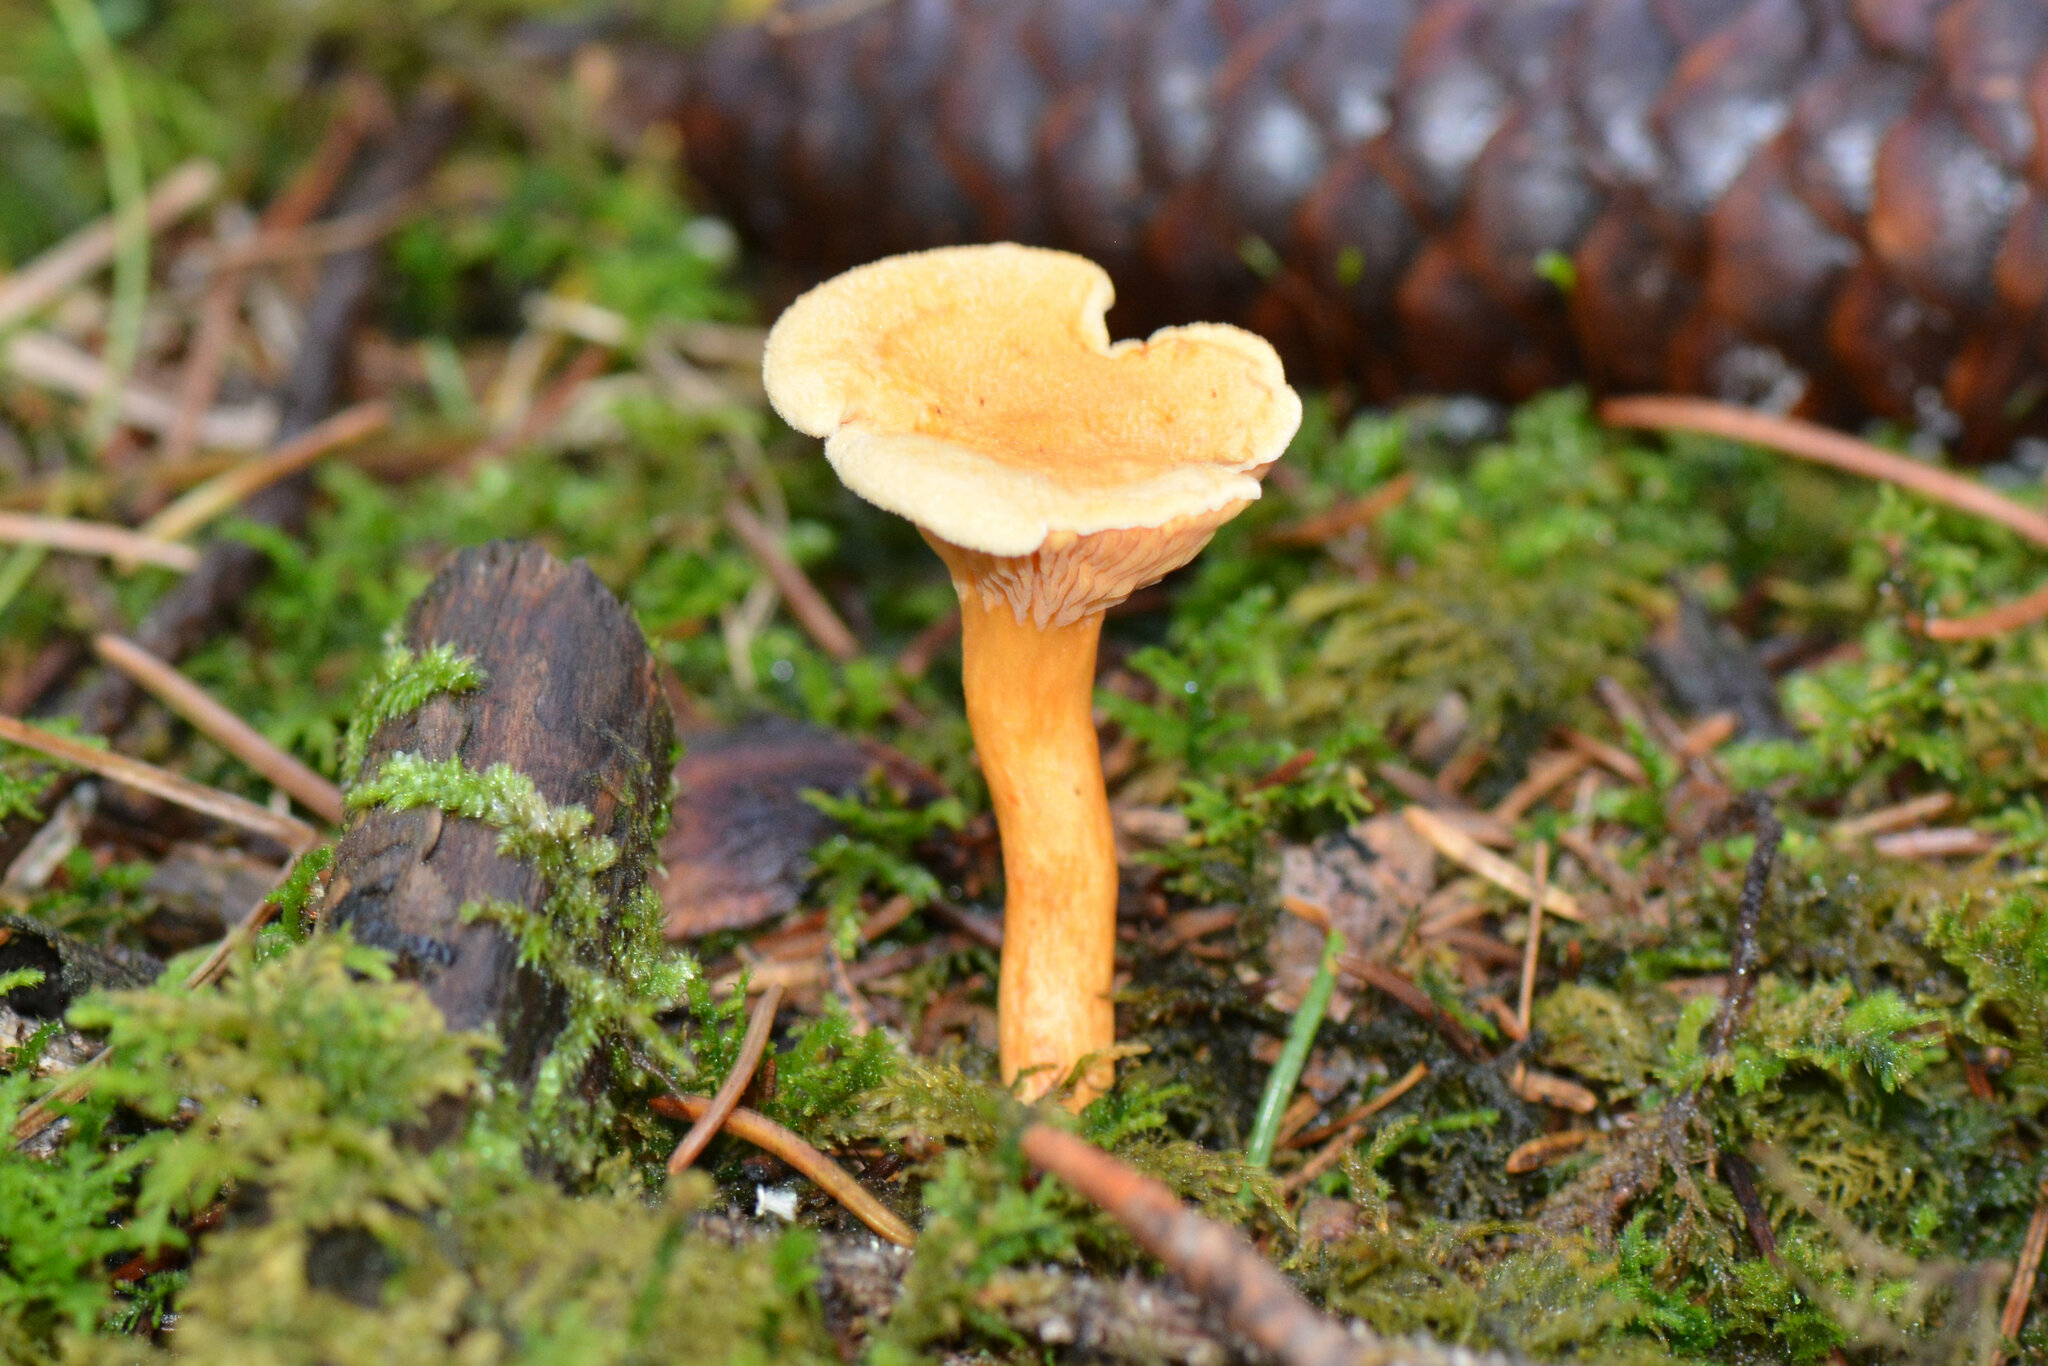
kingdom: Fungi
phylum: Basidiomycota
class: Agaricomycetes
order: Boletales
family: Hygrophoropsidaceae
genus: Hygrophoropsis
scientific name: Hygrophoropsis aurantiaca
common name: False chanterelle
